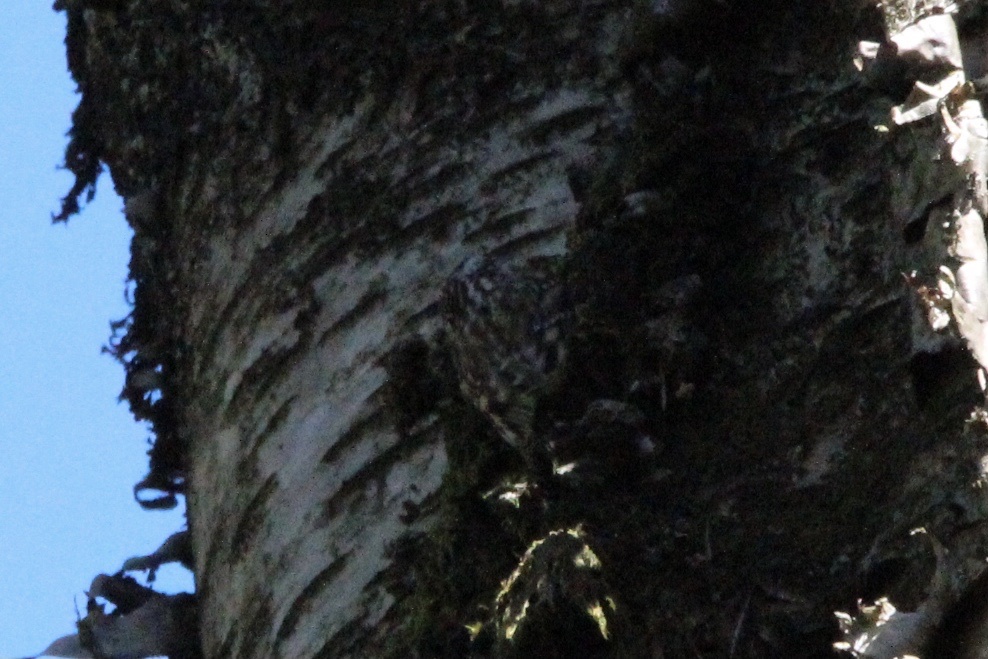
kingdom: Animalia
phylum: Chordata
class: Aves
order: Passeriformes
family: Certhiidae
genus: Certhia
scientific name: Certhia americana
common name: Brown creeper
